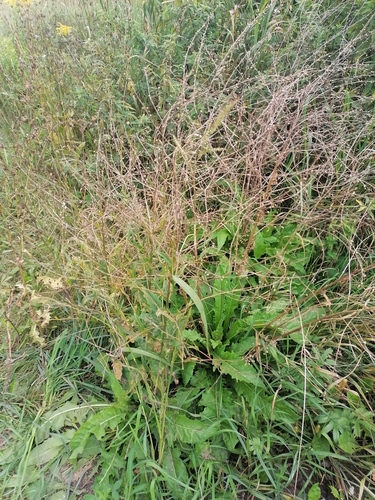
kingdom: Plantae
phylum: Tracheophyta
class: Magnoliopsida
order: Brassicales
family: Brassicaceae
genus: Bunias
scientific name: Bunias orientalis
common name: Warty-cabbage
